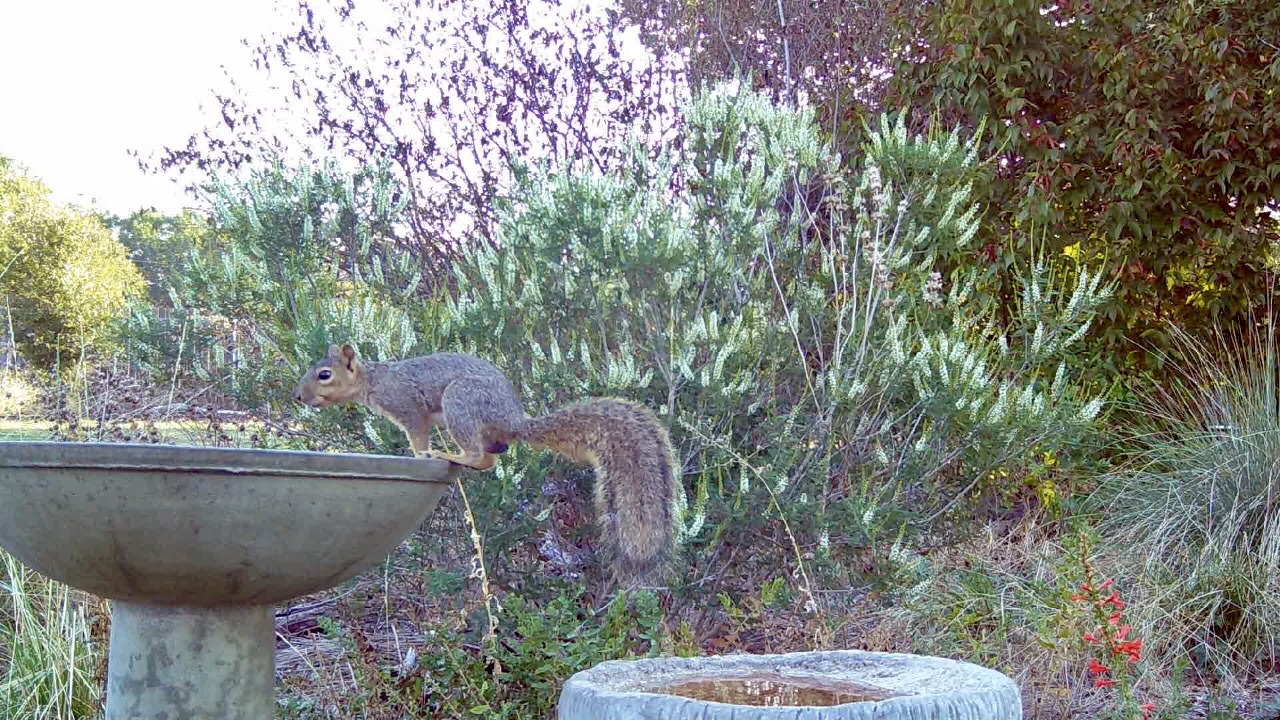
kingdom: Animalia
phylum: Chordata
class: Mammalia
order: Rodentia
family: Sciuridae
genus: Sciurus
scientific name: Sciurus niger
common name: Fox squirrel
